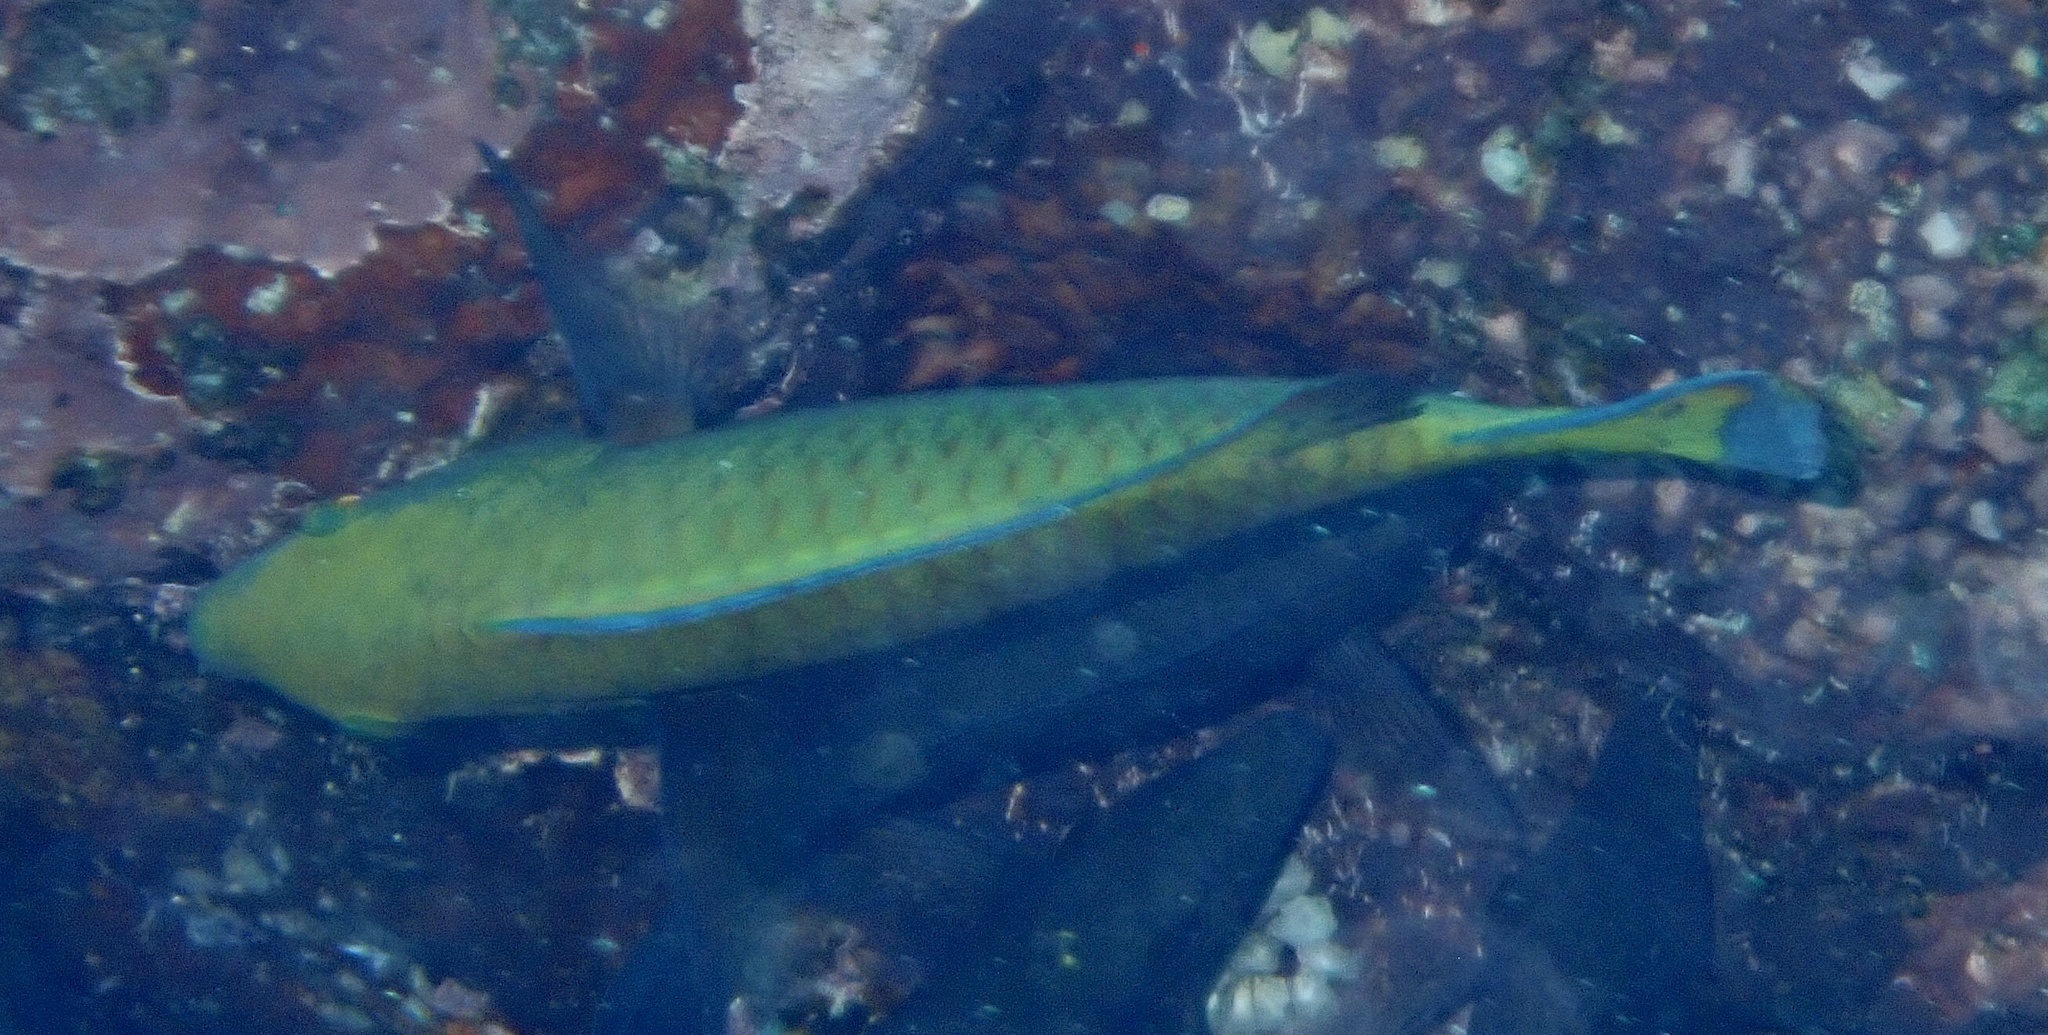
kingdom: Animalia
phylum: Chordata
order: Perciformes
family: Scaridae
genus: Chlorurus
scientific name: Chlorurus gibbus
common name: Heavybeak parrotfish
